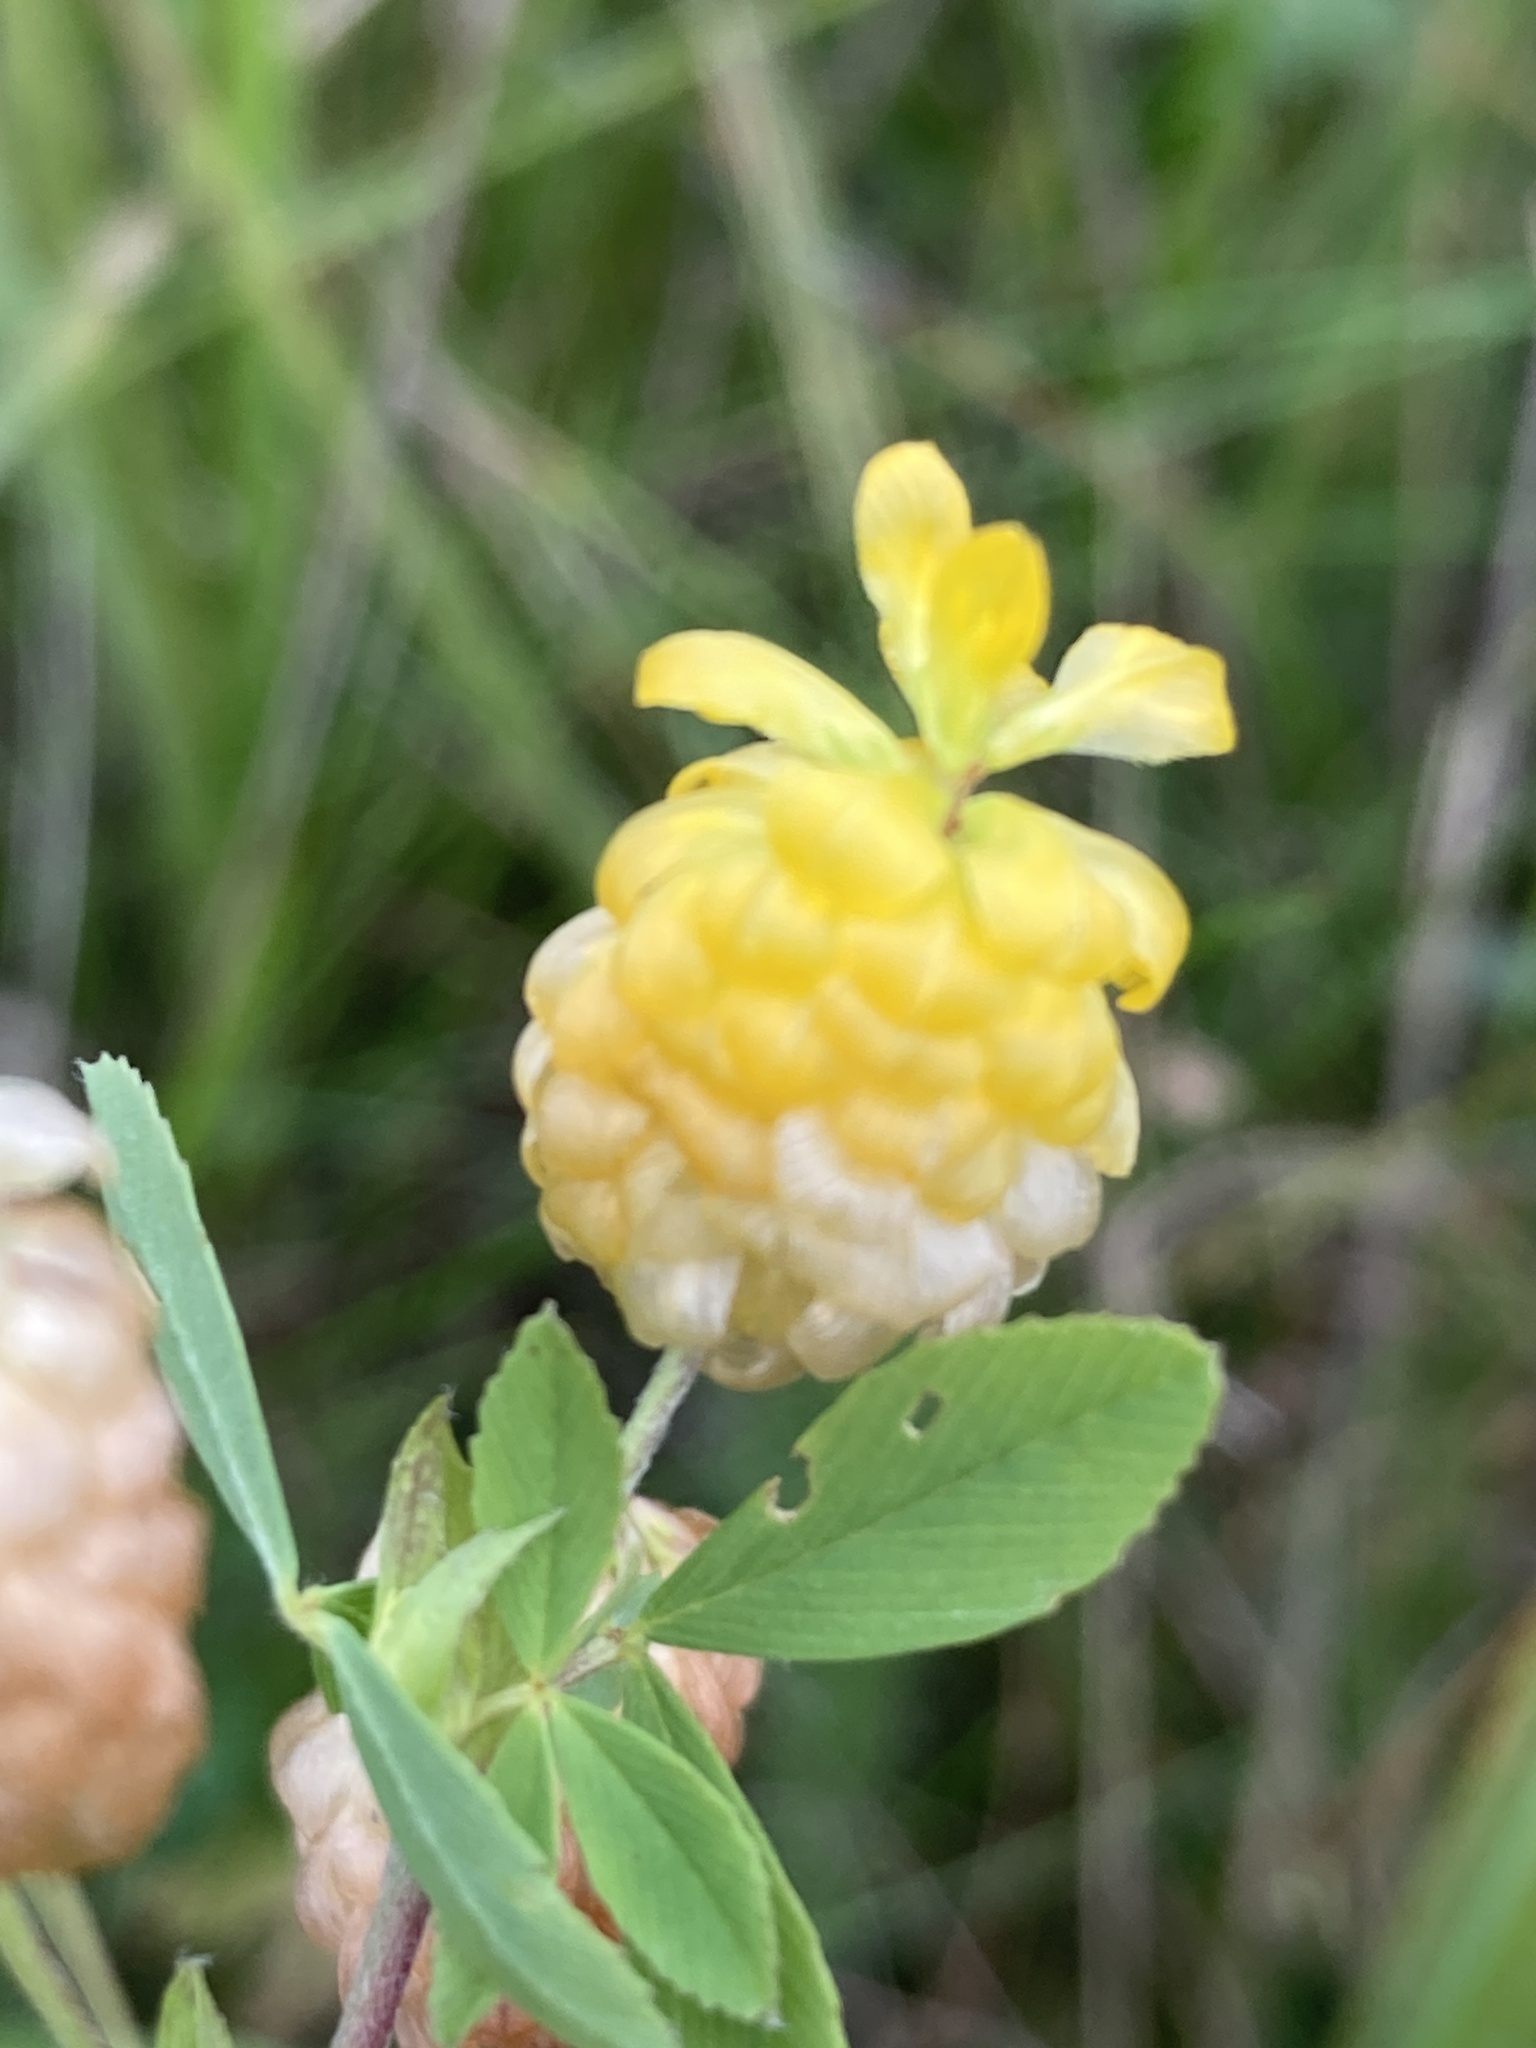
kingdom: Plantae
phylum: Tracheophyta
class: Magnoliopsida
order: Fabales
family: Fabaceae
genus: Trifolium
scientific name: Trifolium aureum
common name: Golden clover
